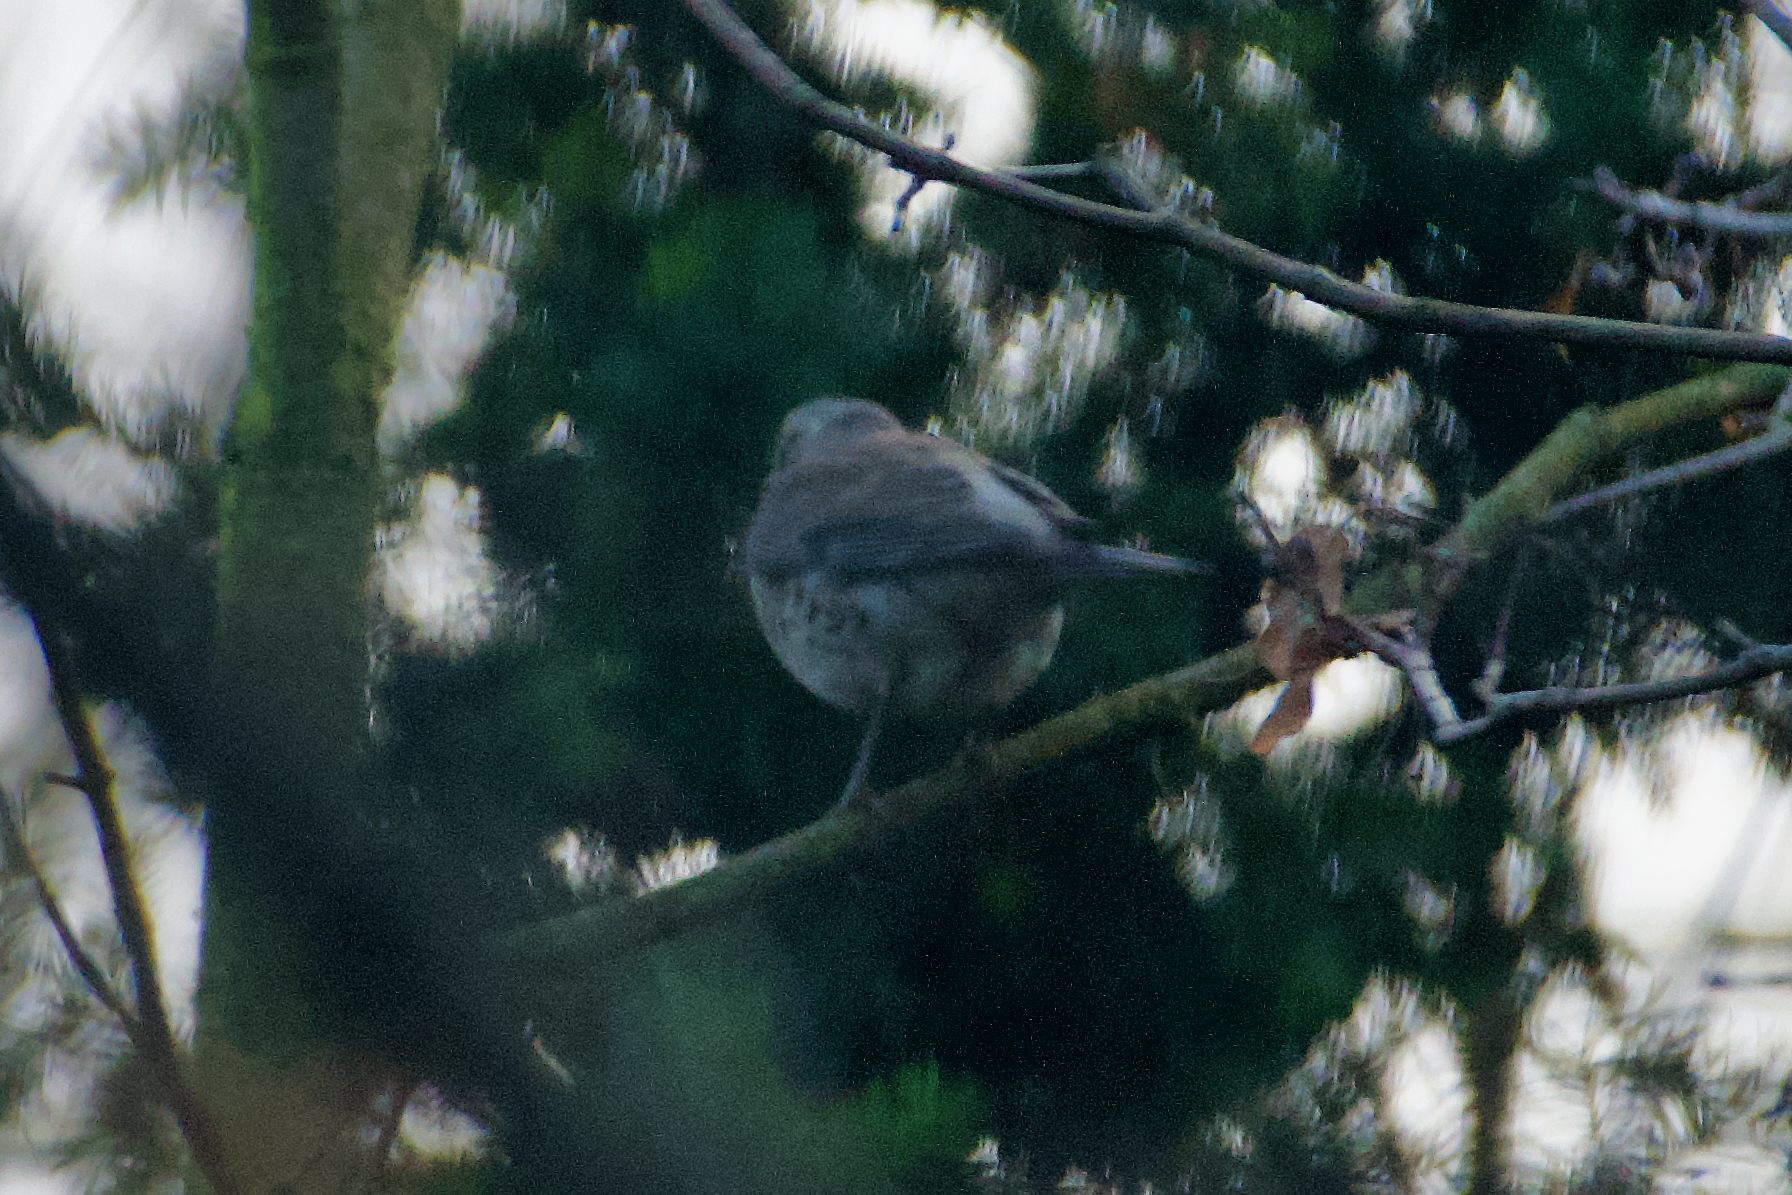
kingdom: Animalia
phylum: Chordata
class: Aves
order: Passeriformes
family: Turdidae
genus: Turdus
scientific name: Turdus pilaris
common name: Fieldfare
